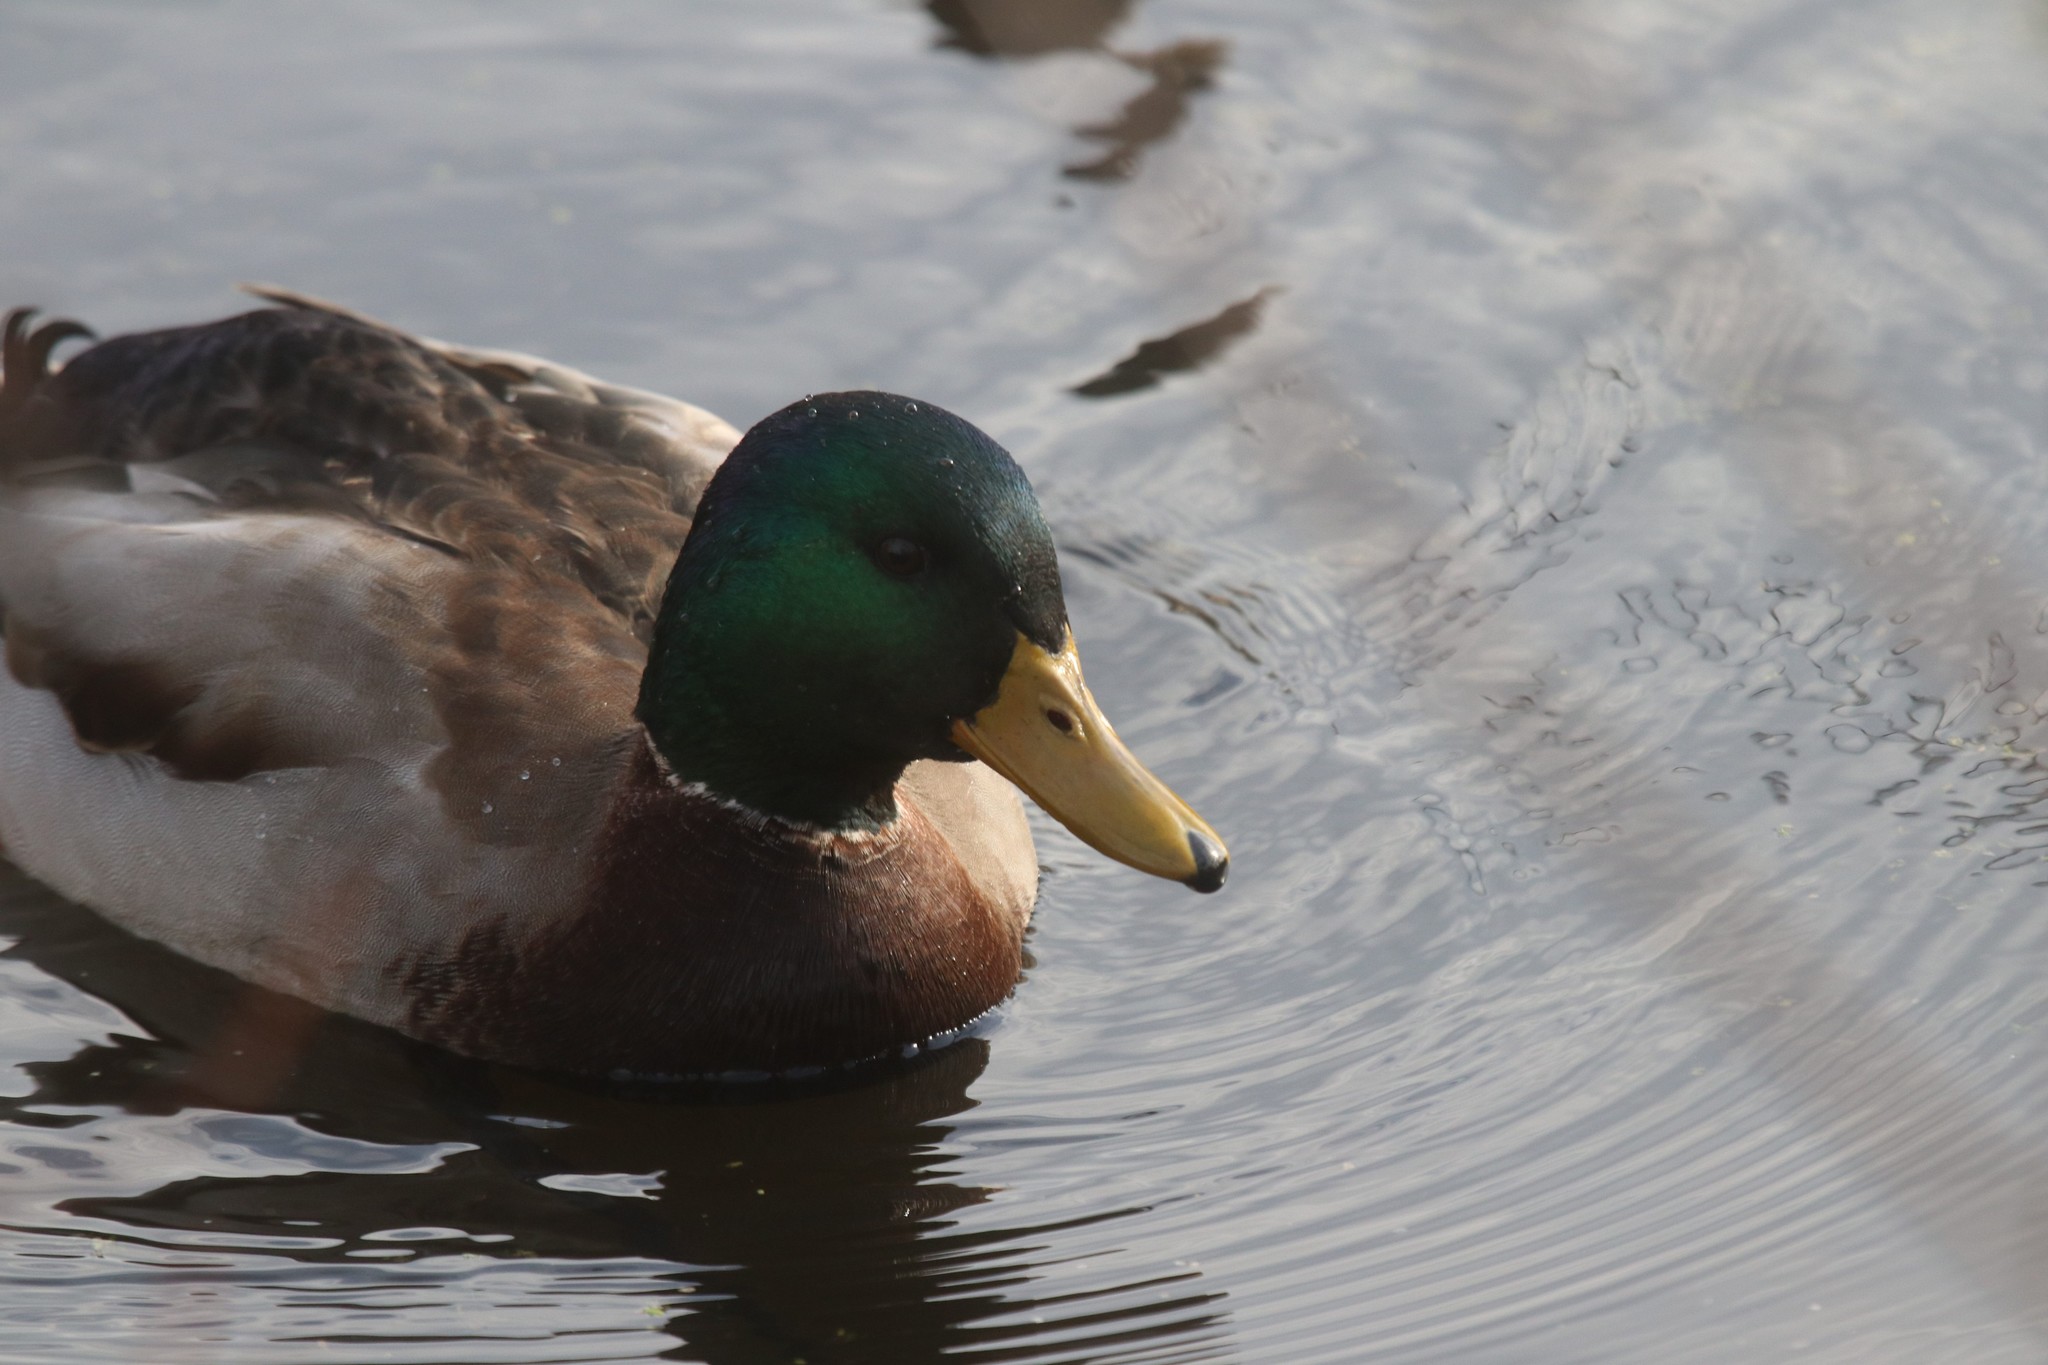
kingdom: Animalia
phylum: Chordata
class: Aves
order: Anseriformes
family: Anatidae
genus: Anas
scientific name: Anas platyrhynchos
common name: Mallard
